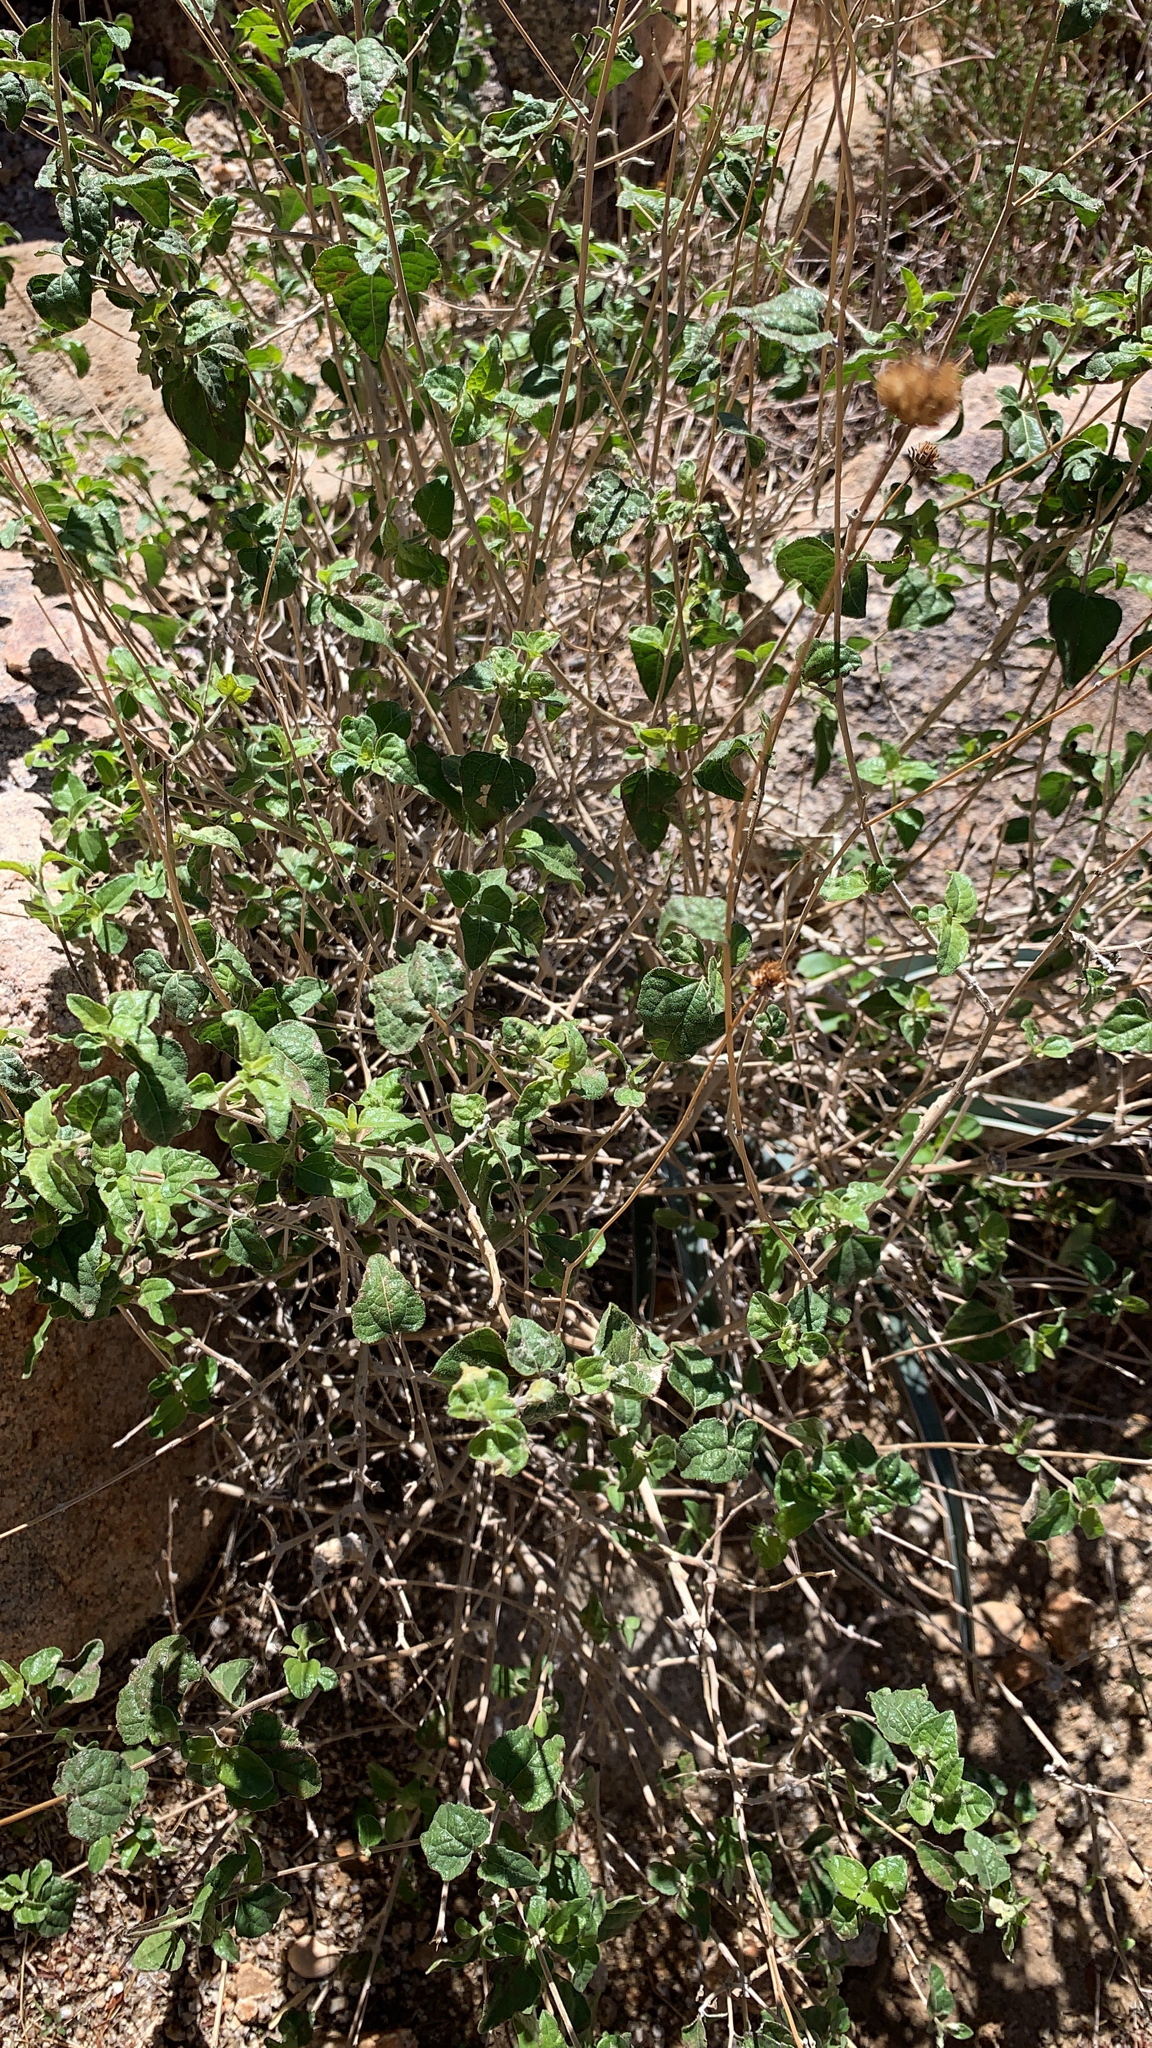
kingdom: Plantae
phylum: Tracheophyta
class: Magnoliopsida
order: Asterales
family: Asteraceae
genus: Bahiopsis
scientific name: Bahiopsis parishii
